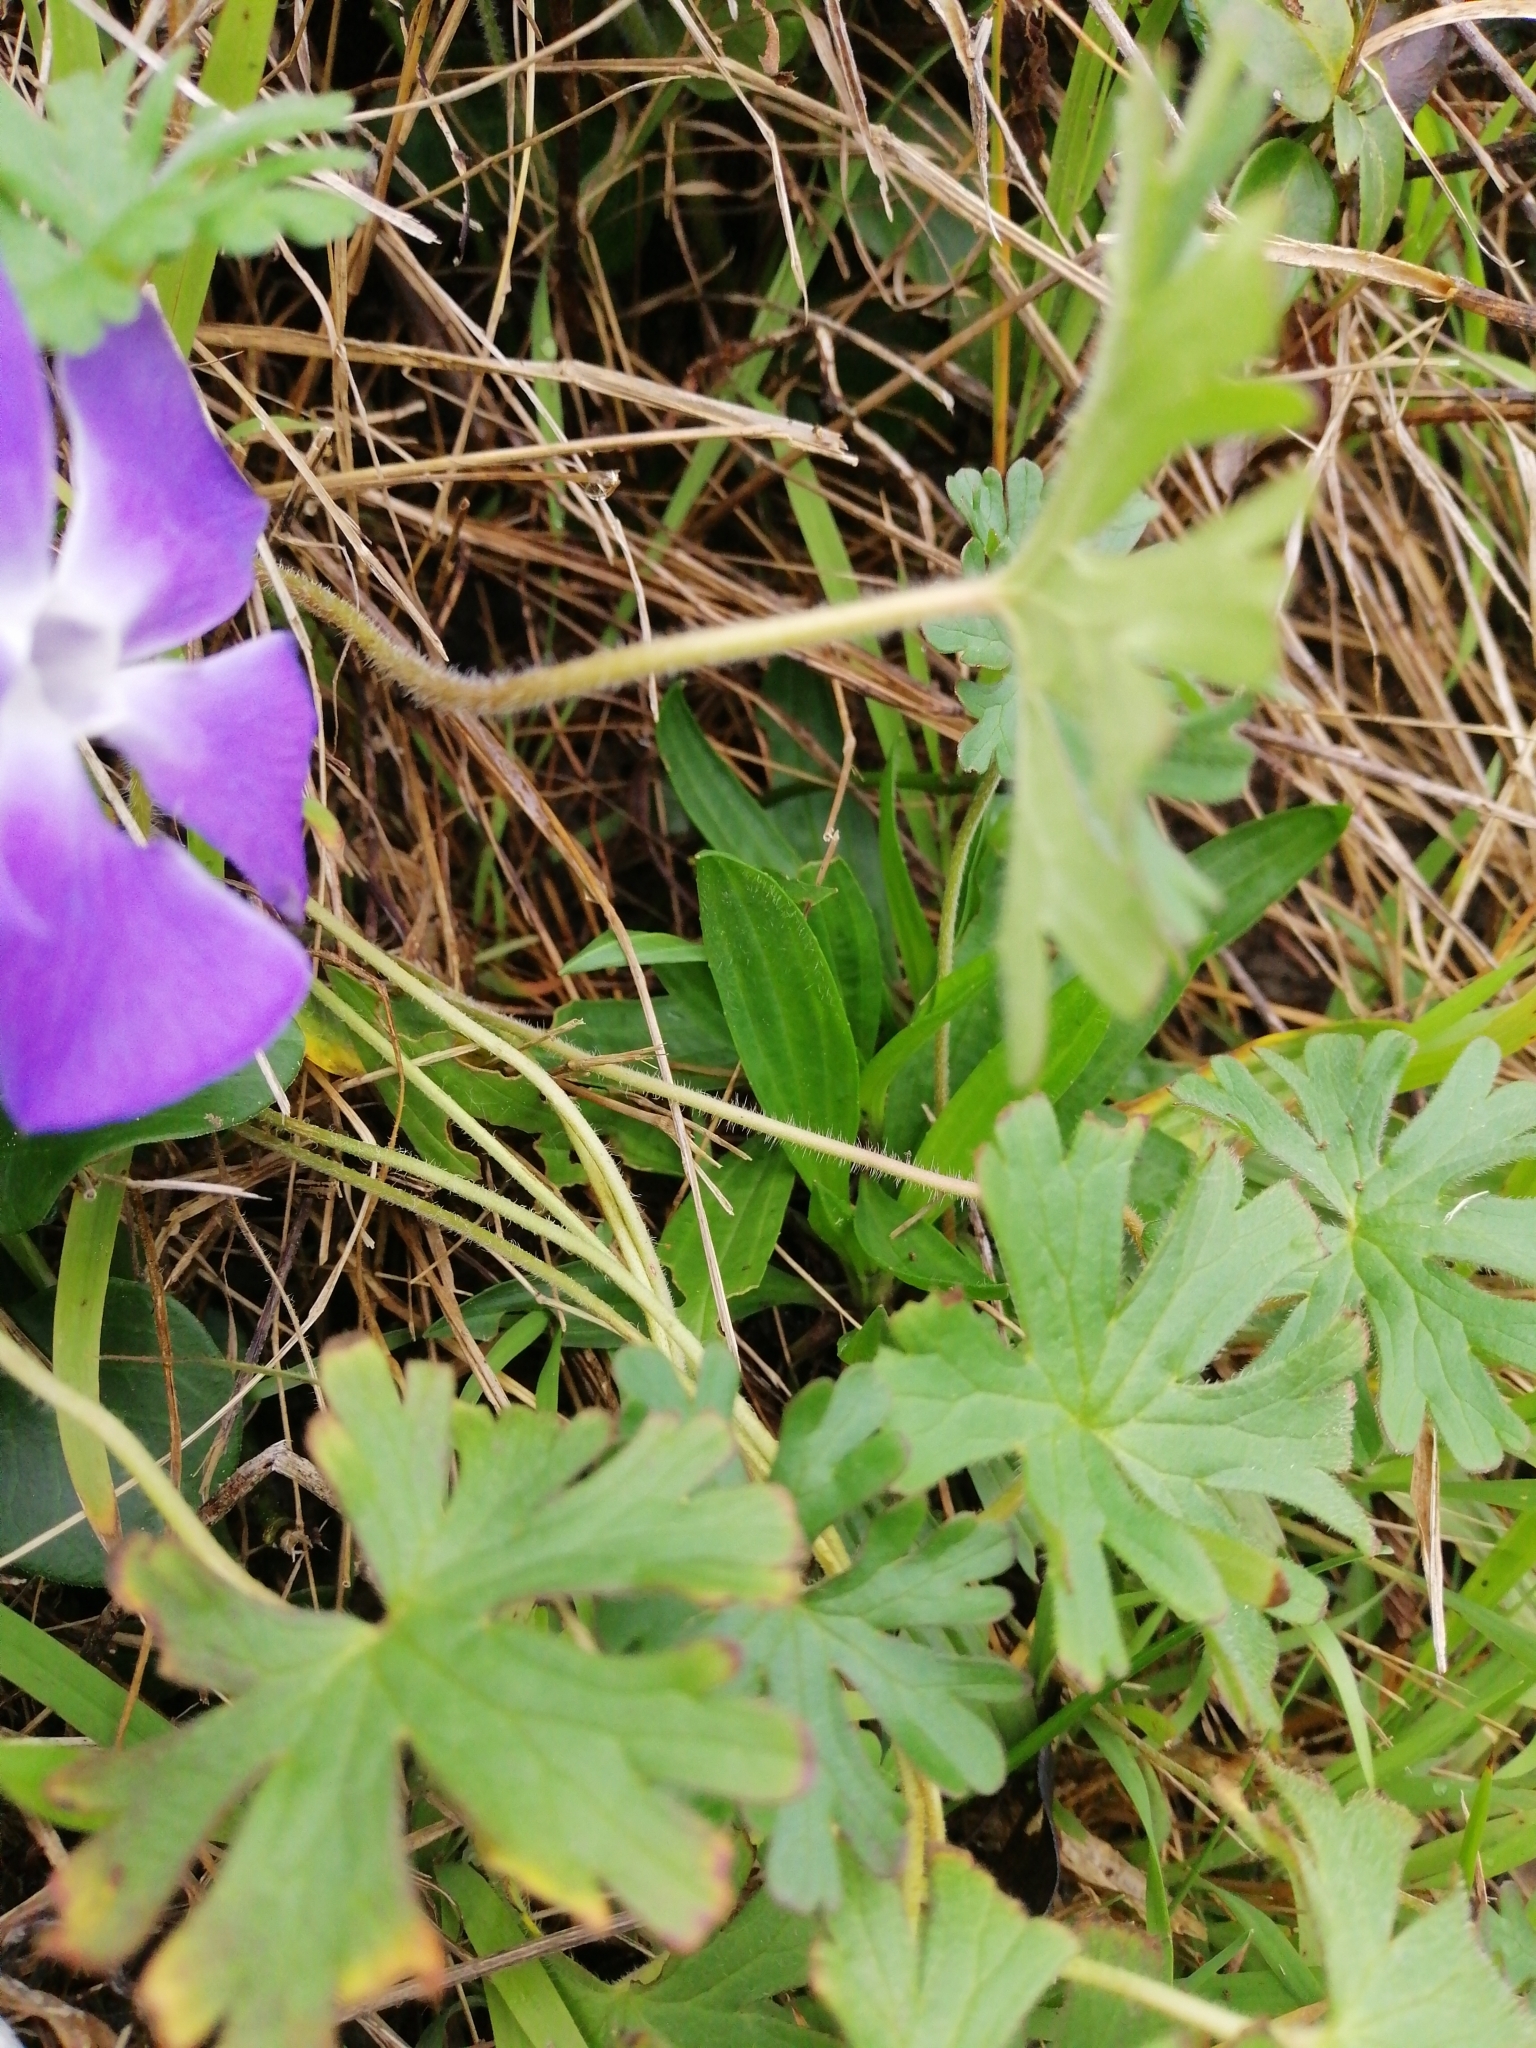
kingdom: Plantae
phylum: Tracheophyta
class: Magnoliopsida
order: Geraniales
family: Geraniaceae
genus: Geranium
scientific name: Geranium solanderi
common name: Solander's geranium
